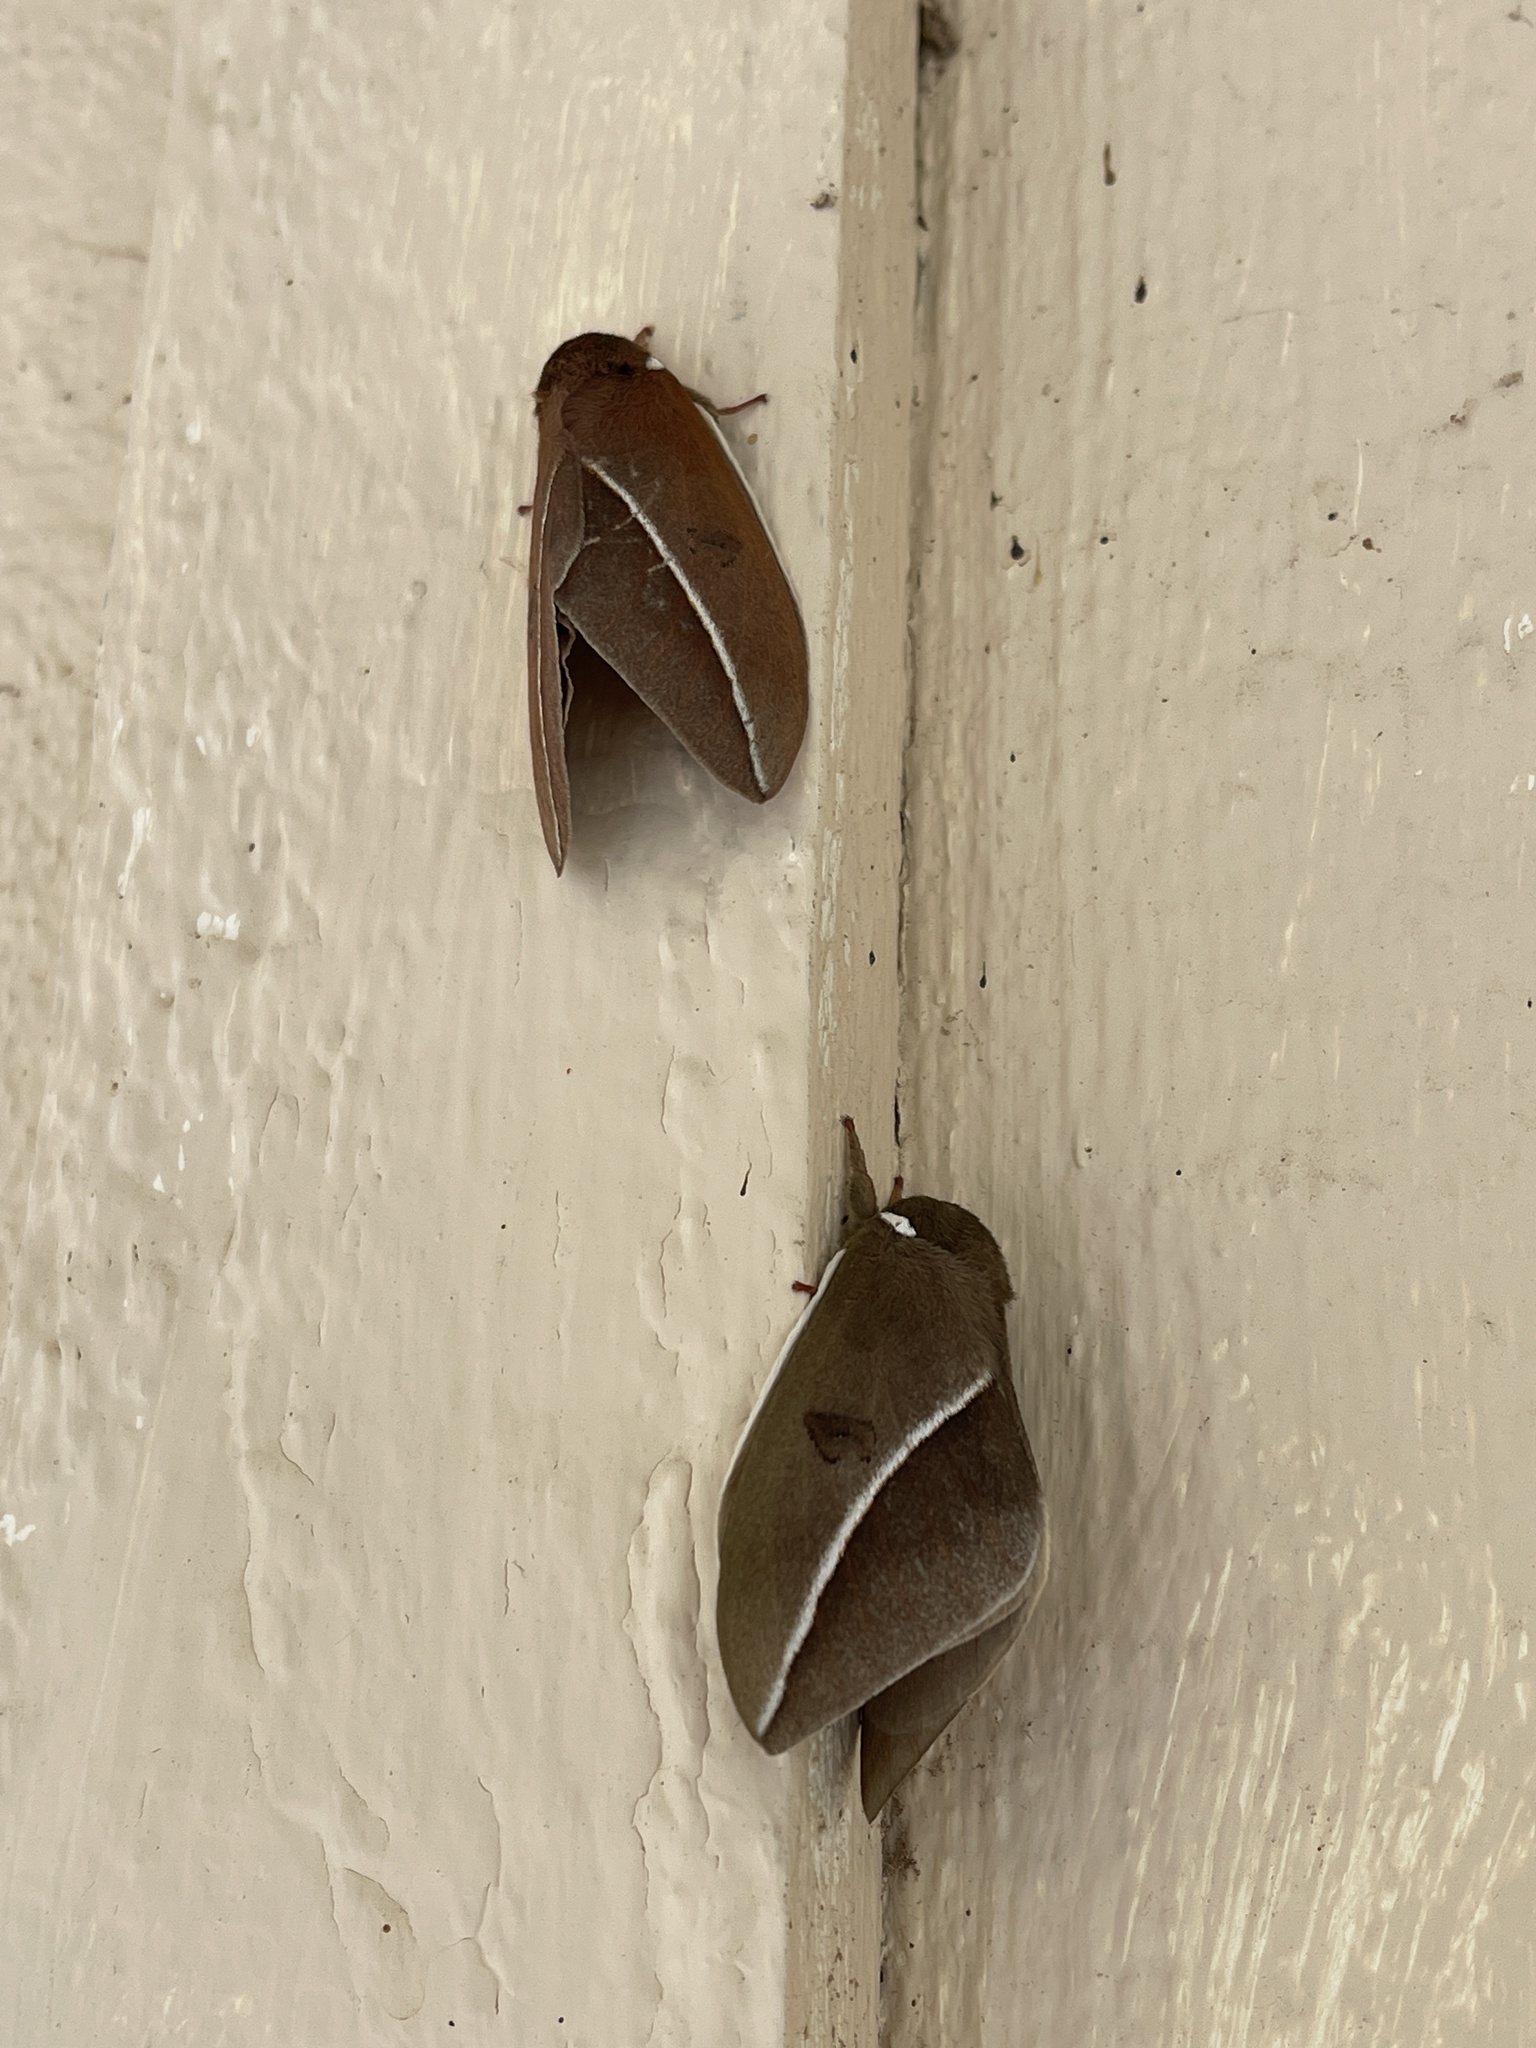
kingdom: Animalia
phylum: Arthropoda
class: Insecta
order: Lepidoptera
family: Saturniidae
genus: Automeris
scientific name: Automeris zephyria
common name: Zephyr eyed silkmoth
